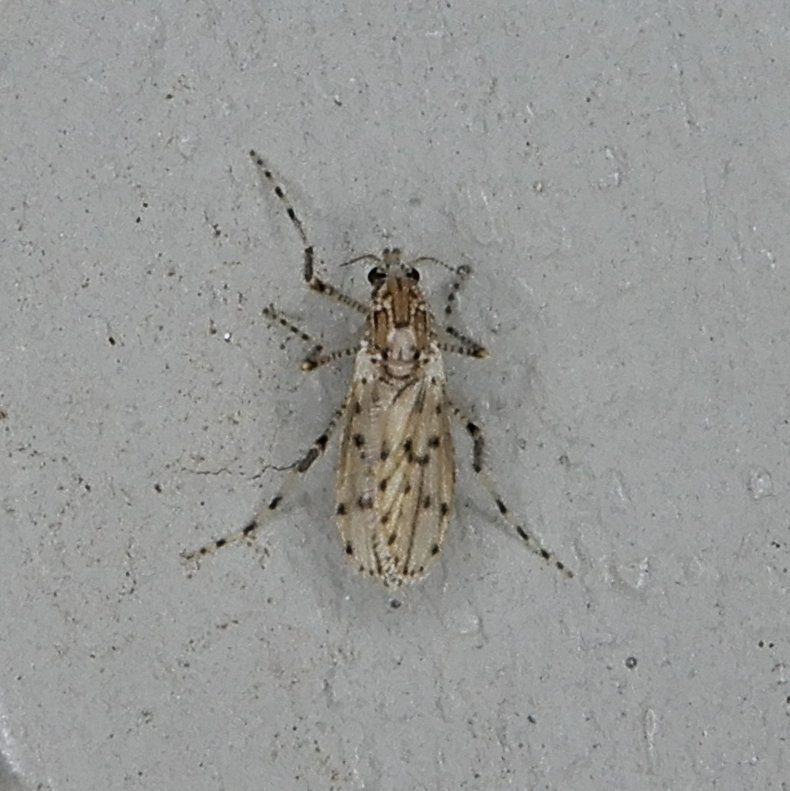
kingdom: Animalia
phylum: Arthropoda
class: Insecta
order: Diptera
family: Chaoboridae
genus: Chaoborus
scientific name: Chaoborus punctipennis
